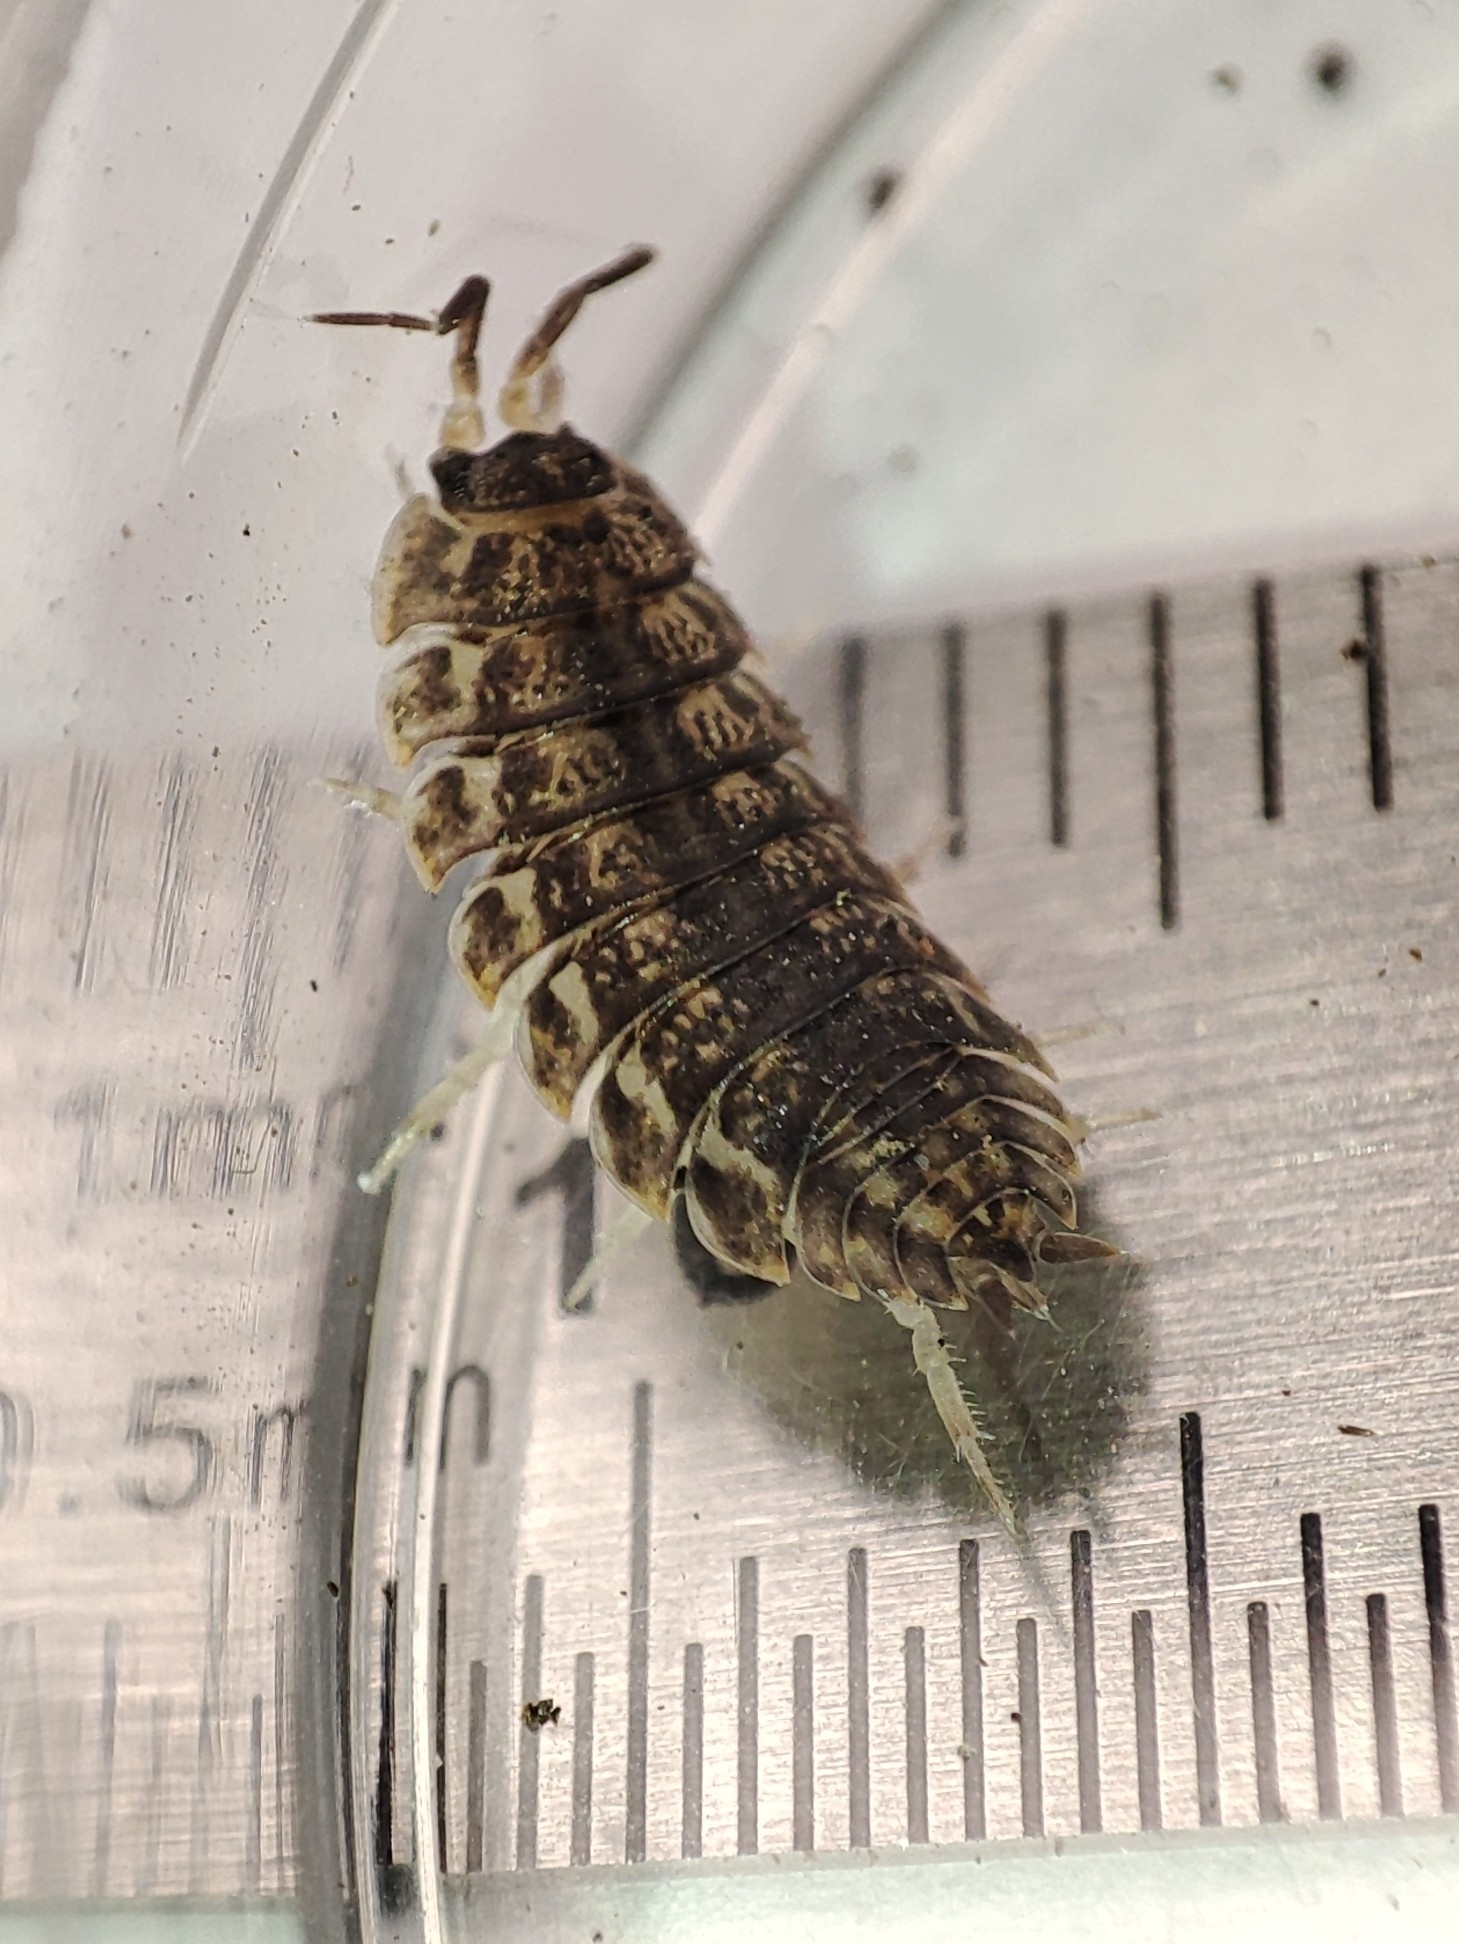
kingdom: Animalia
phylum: Arthropoda
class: Malacostraca
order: Isopoda
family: Trachelipodidae
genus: Trachelipus
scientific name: Trachelipus rathkii
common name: Isopod
